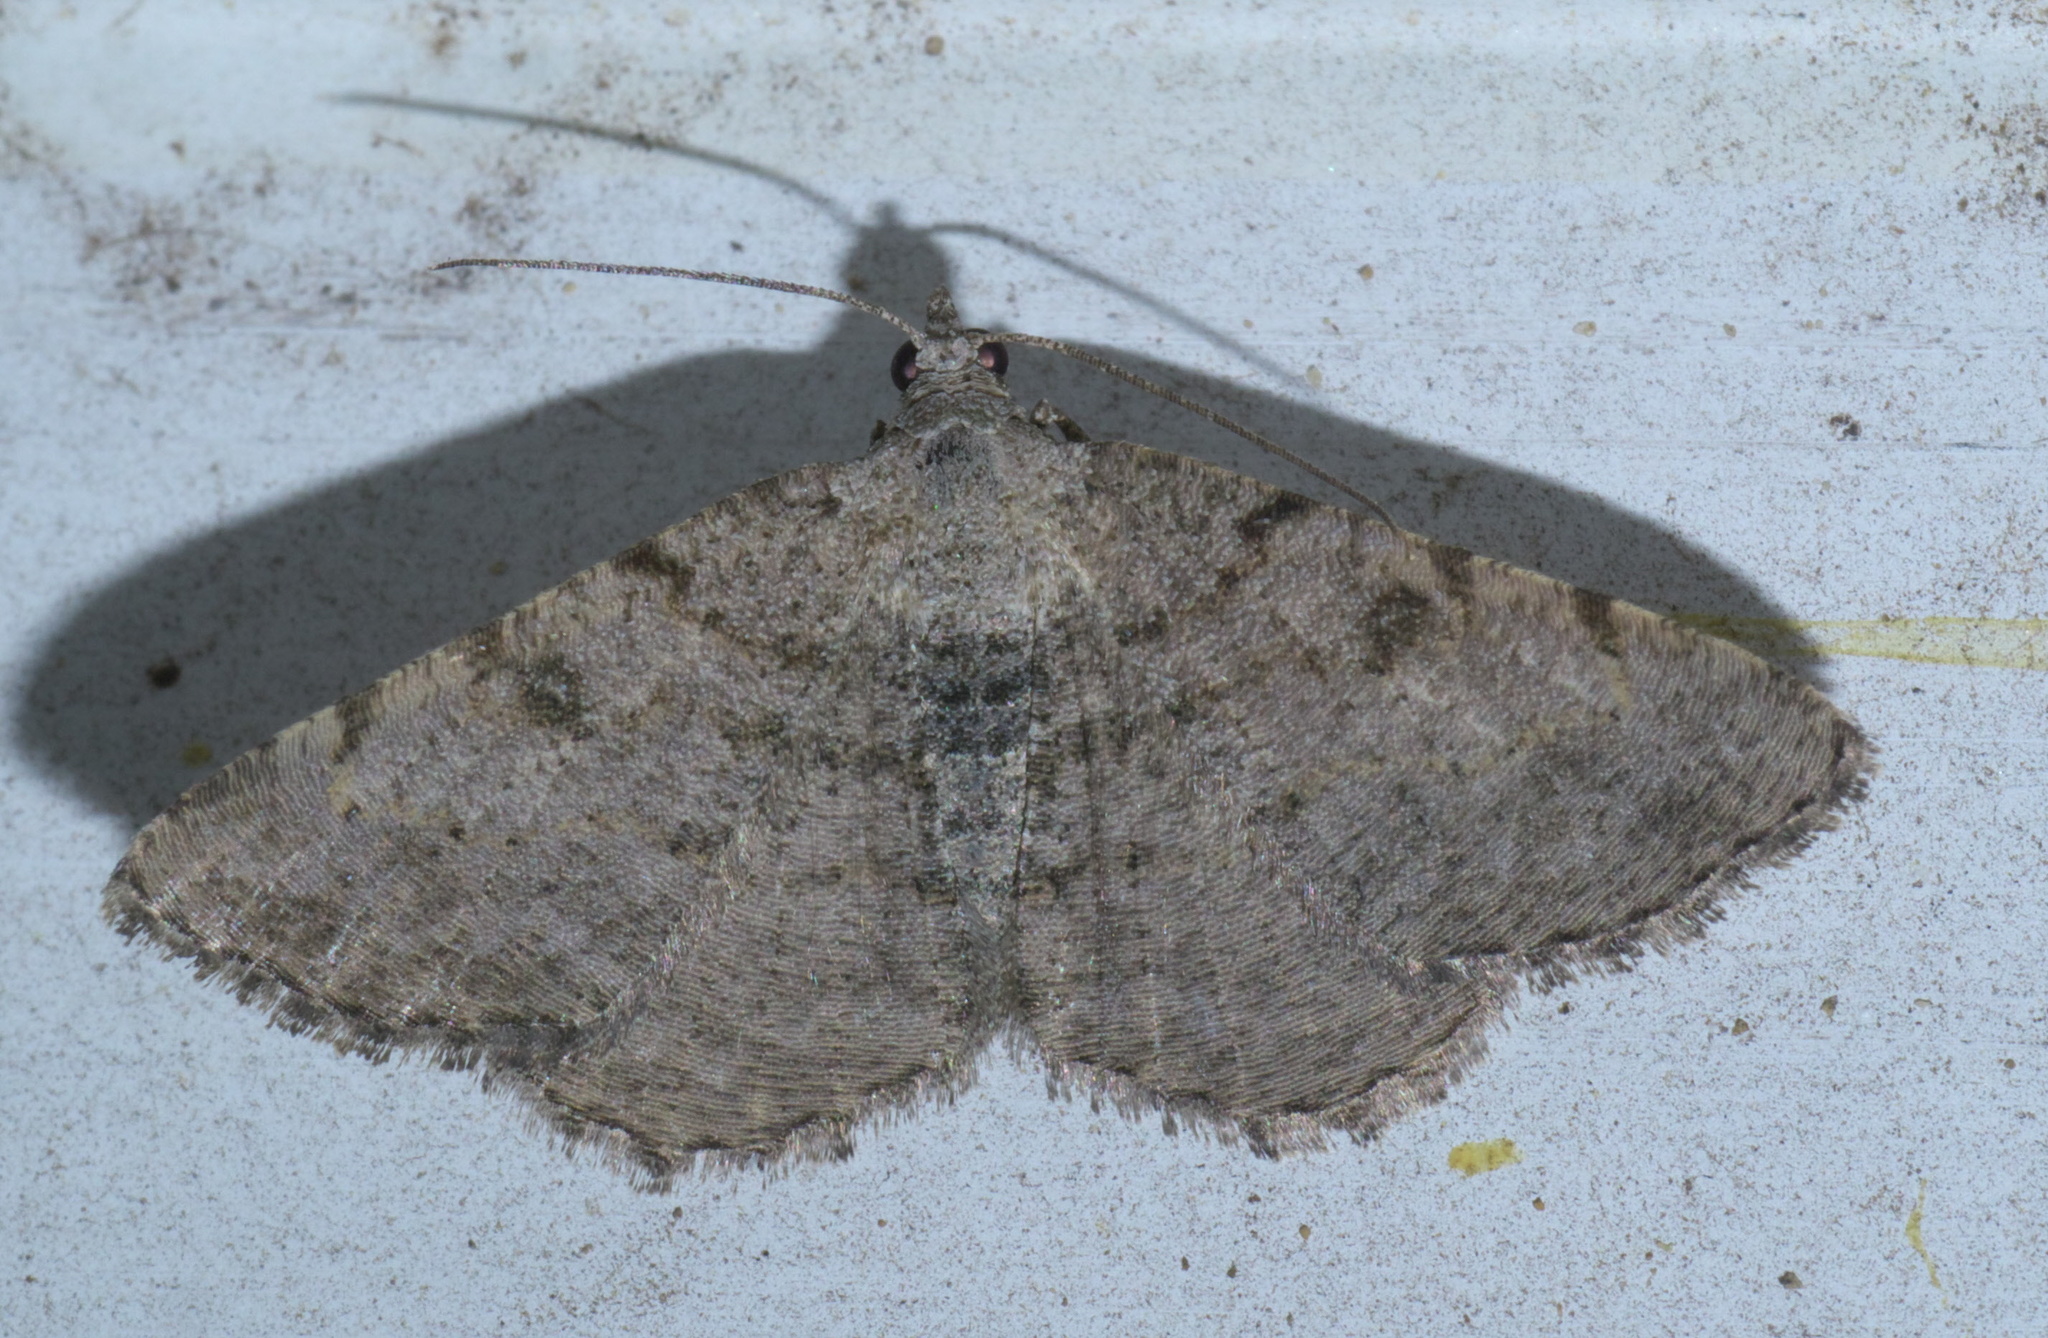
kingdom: Animalia
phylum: Arthropoda
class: Insecta
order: Lepidoptera
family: Geometridae
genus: Digrammia
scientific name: Digrammia gnophosaria
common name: Hollow-spotted angle
